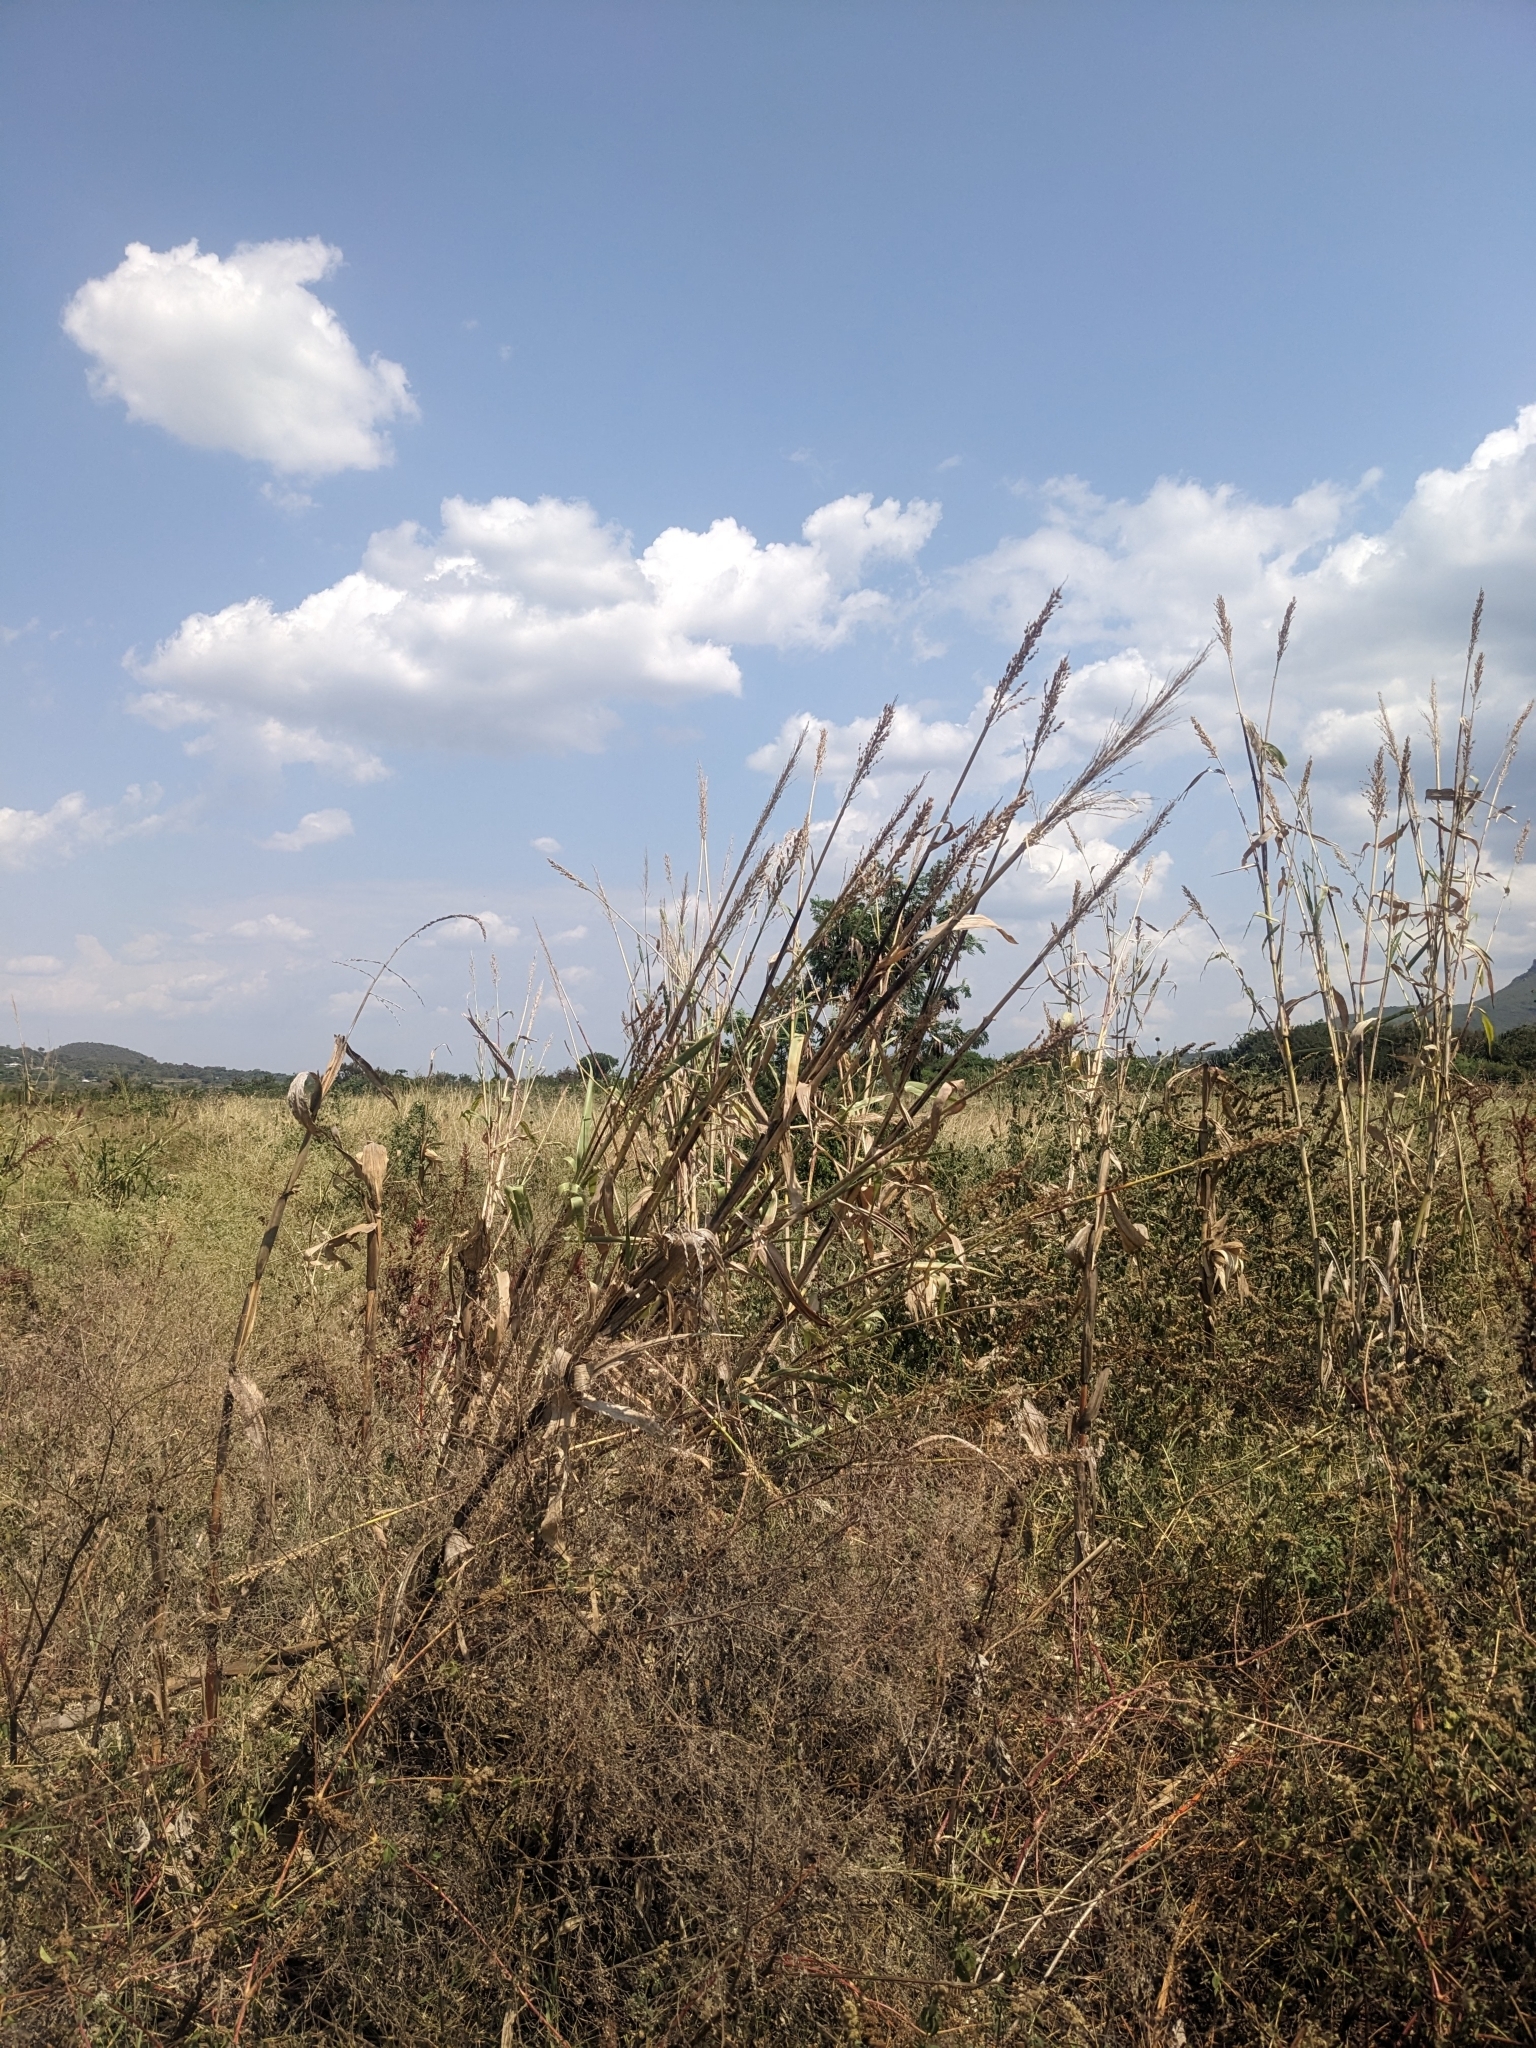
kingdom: Plantae
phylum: Tracheophyta
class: Liliopsida
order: Poales
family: Poaceae
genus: Sorghum
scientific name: Sorghum arundinaceum
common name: Sorghum
